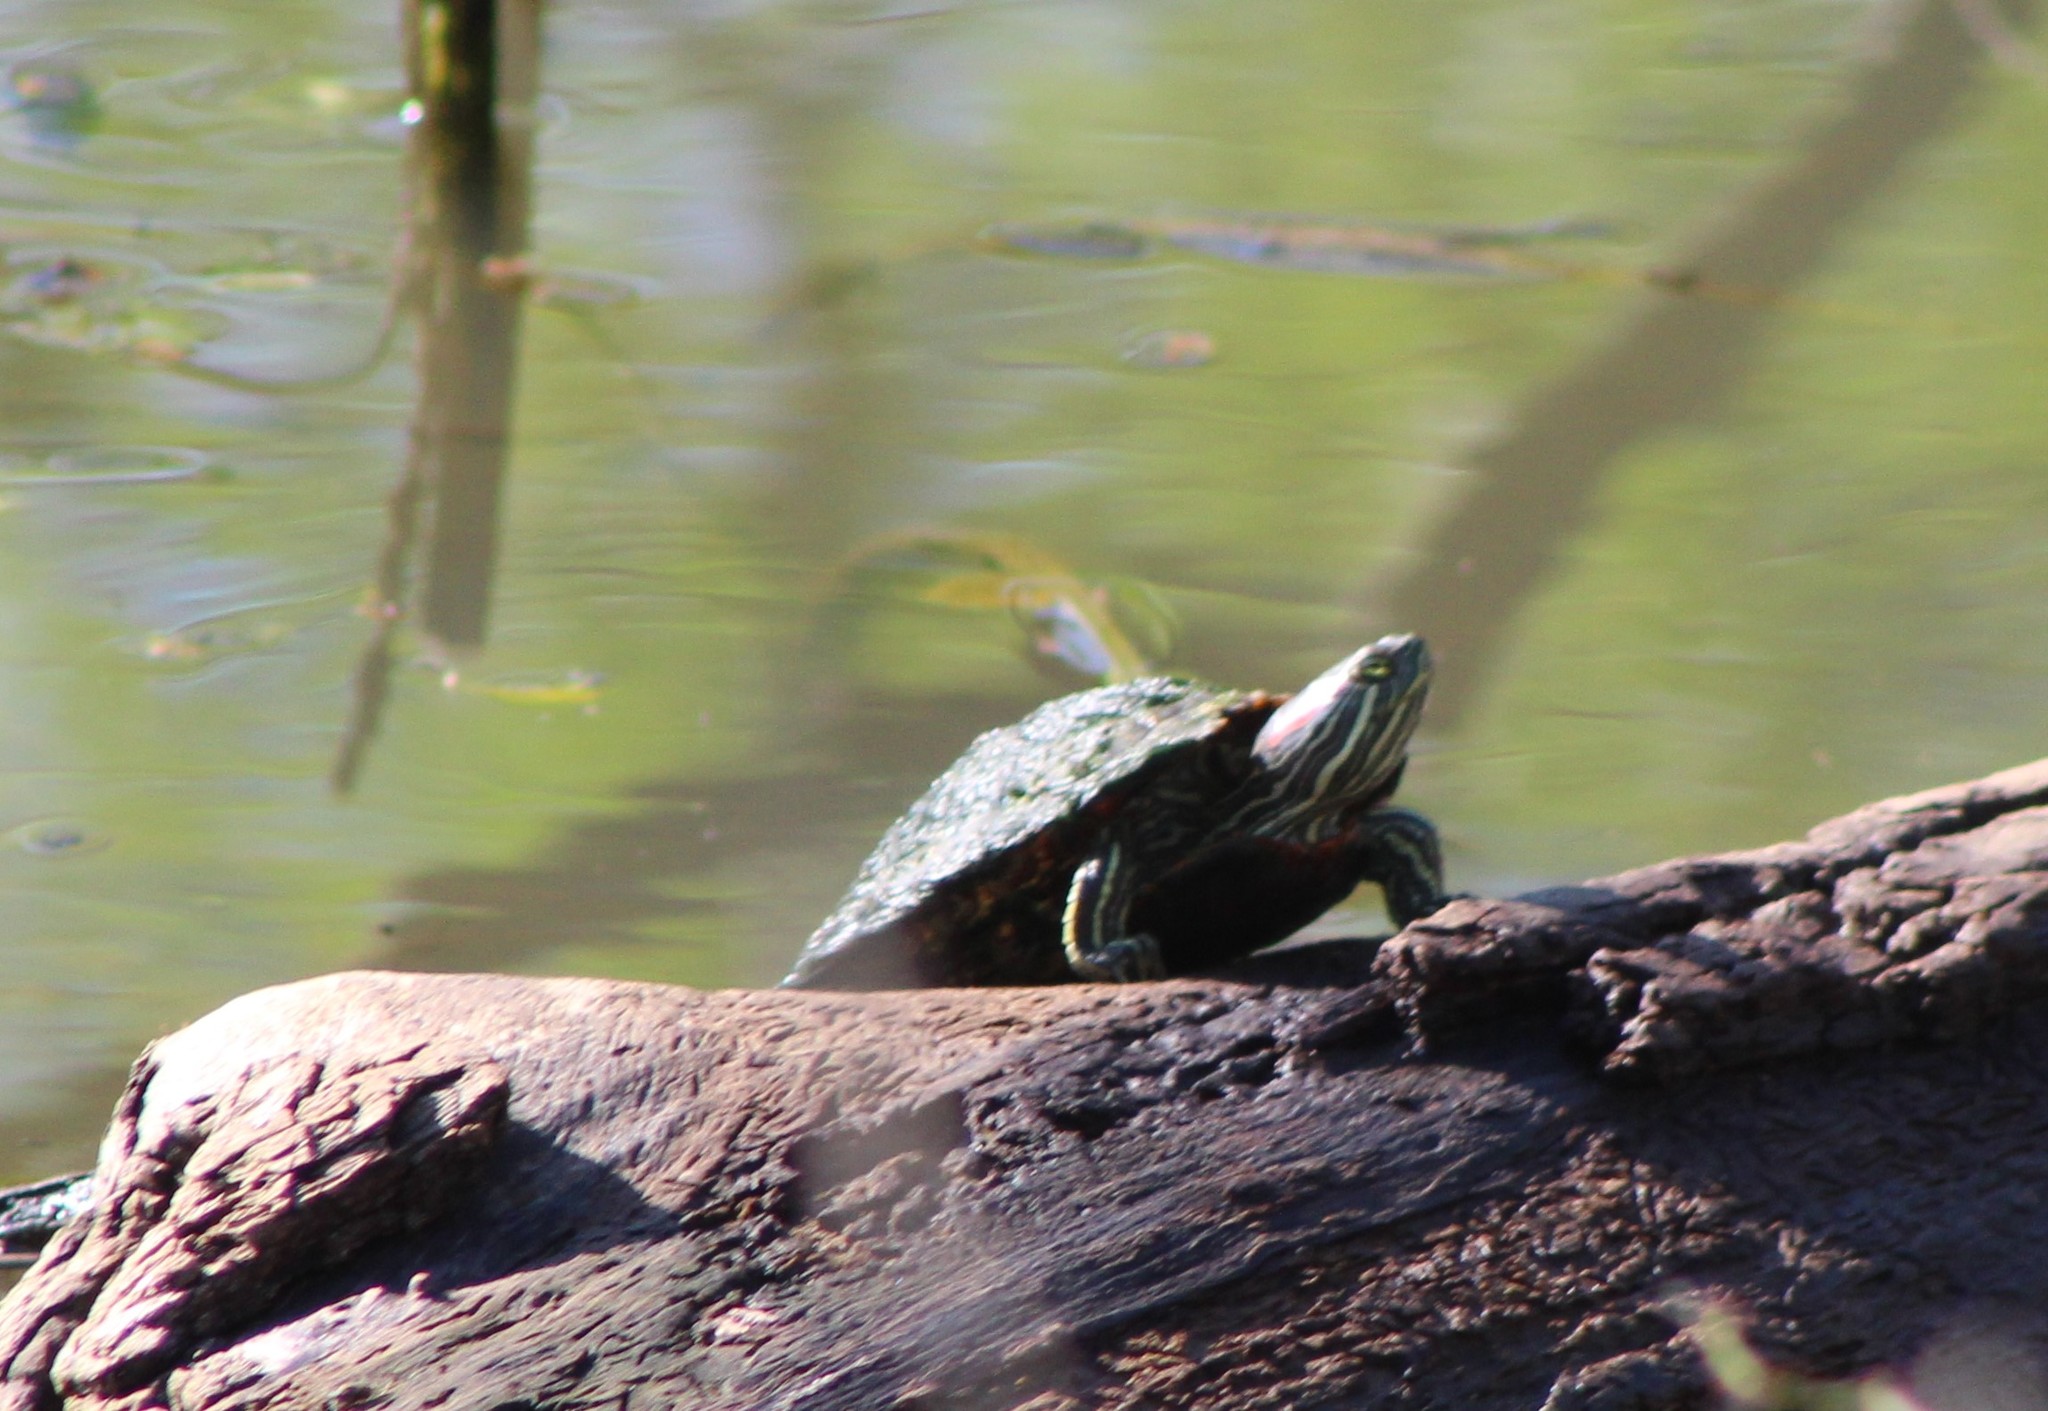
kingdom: Animalia
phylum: Chordata
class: Testudines
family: Emydidae
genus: Trachemys
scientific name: Trachemys scripta
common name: Slider
